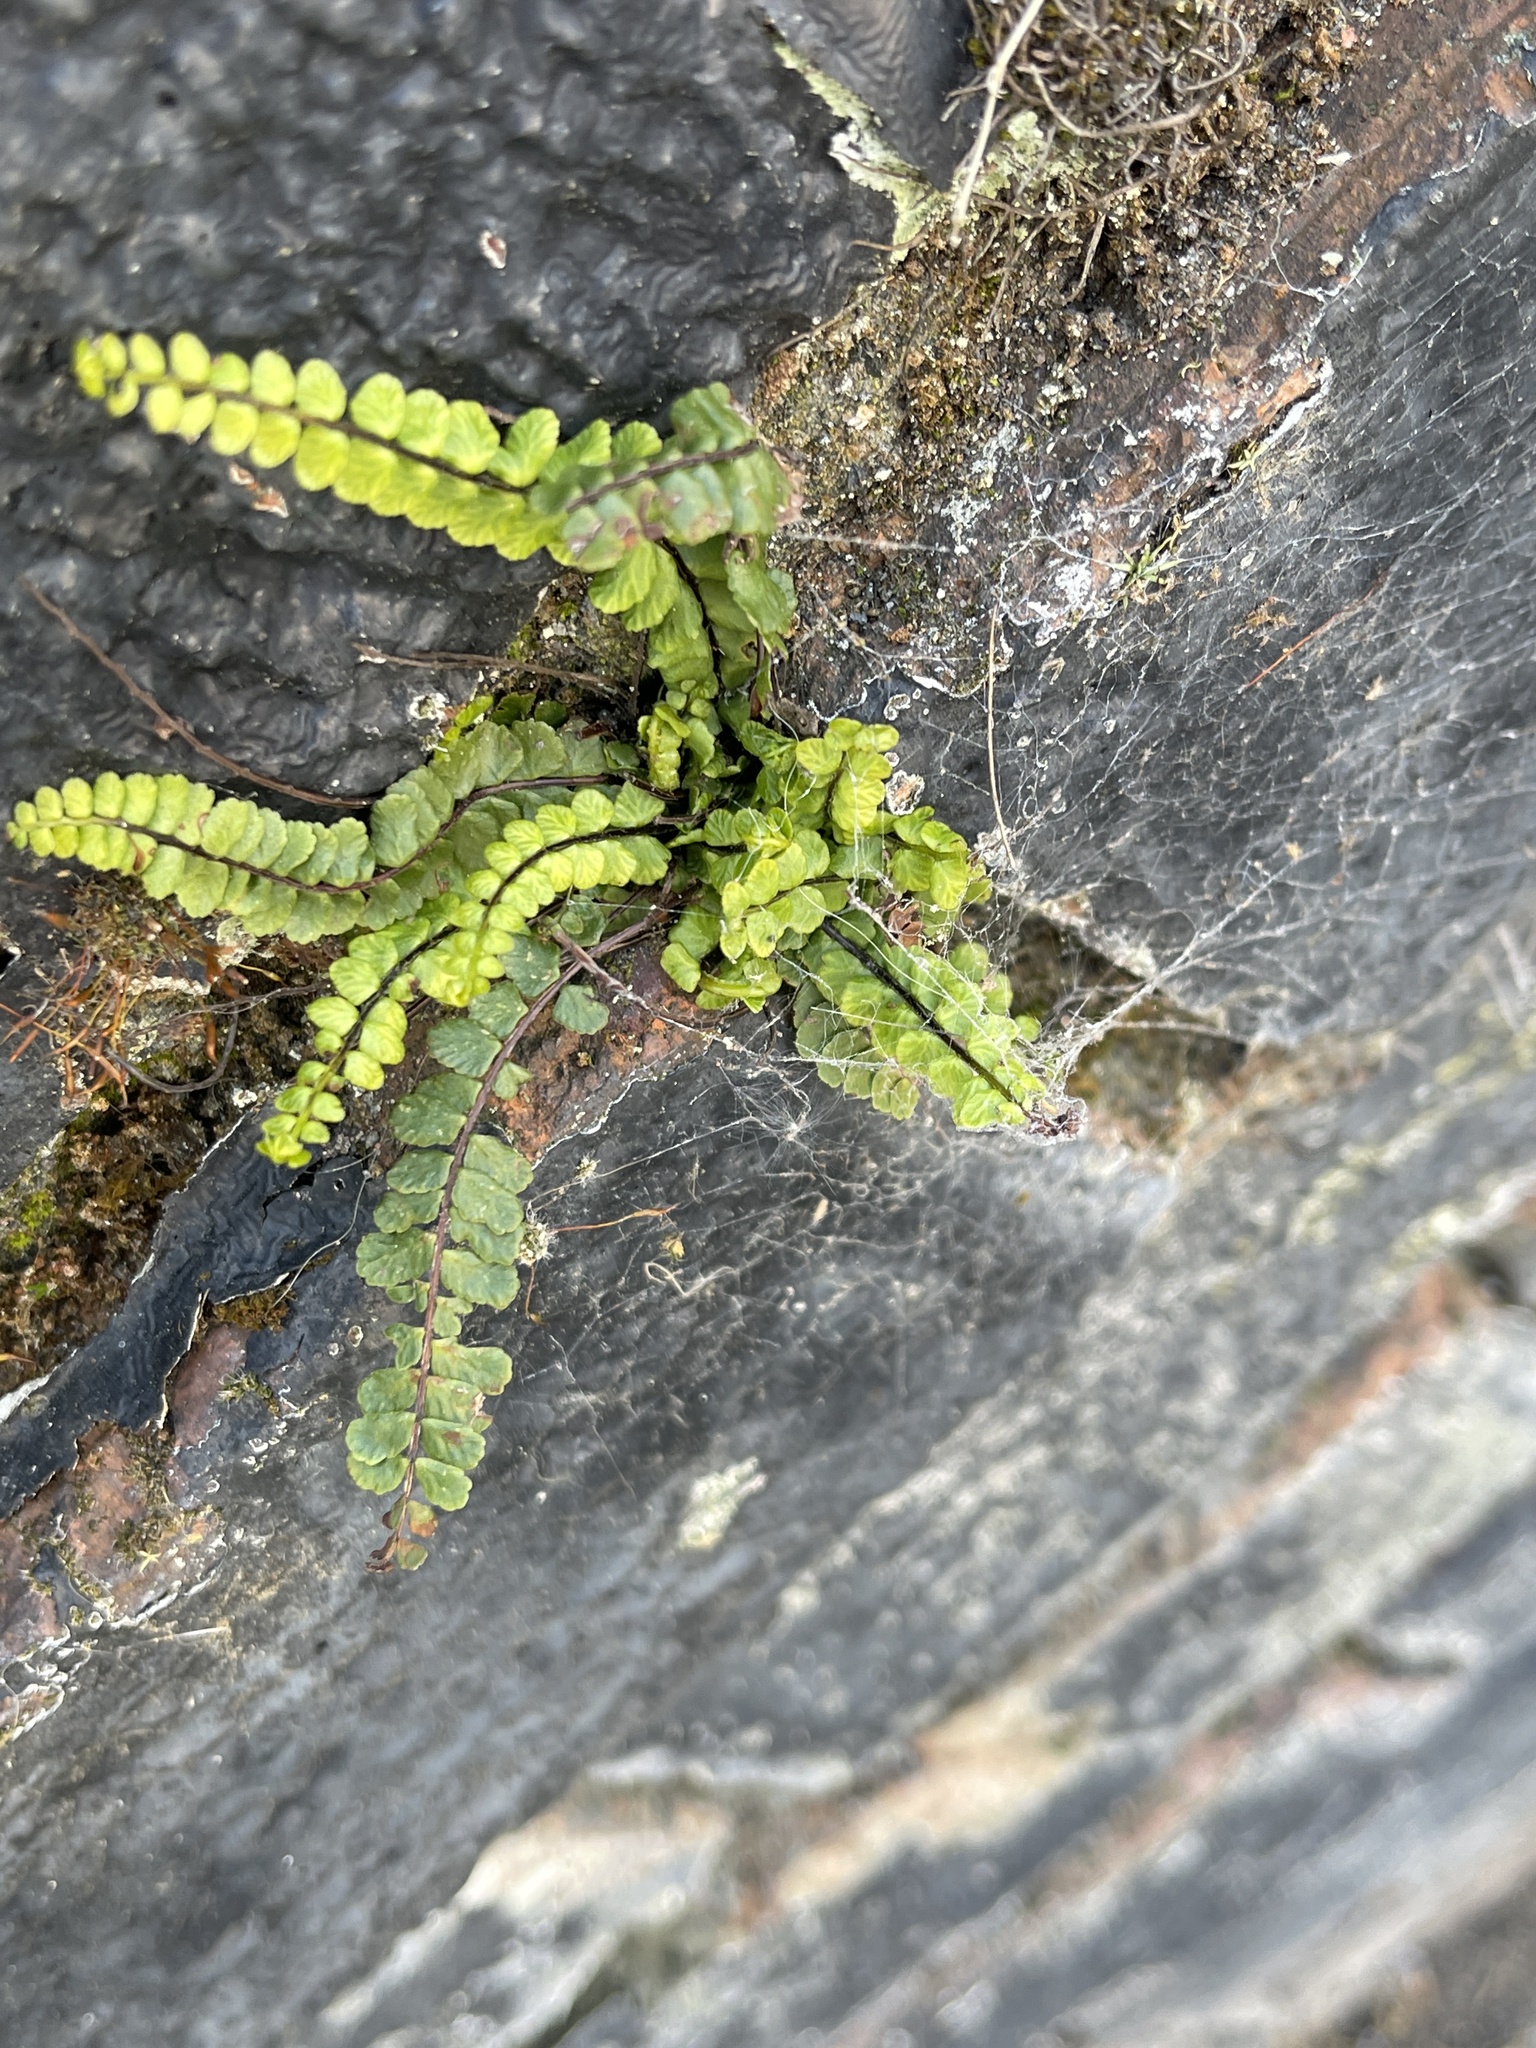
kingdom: Plantae
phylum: Tracheophyta
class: Polypodiopsida
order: Polypodiales
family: Aspleniaceae
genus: Asplenium
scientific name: Asplenium trichomanes
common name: Maidenhair spleenwort
